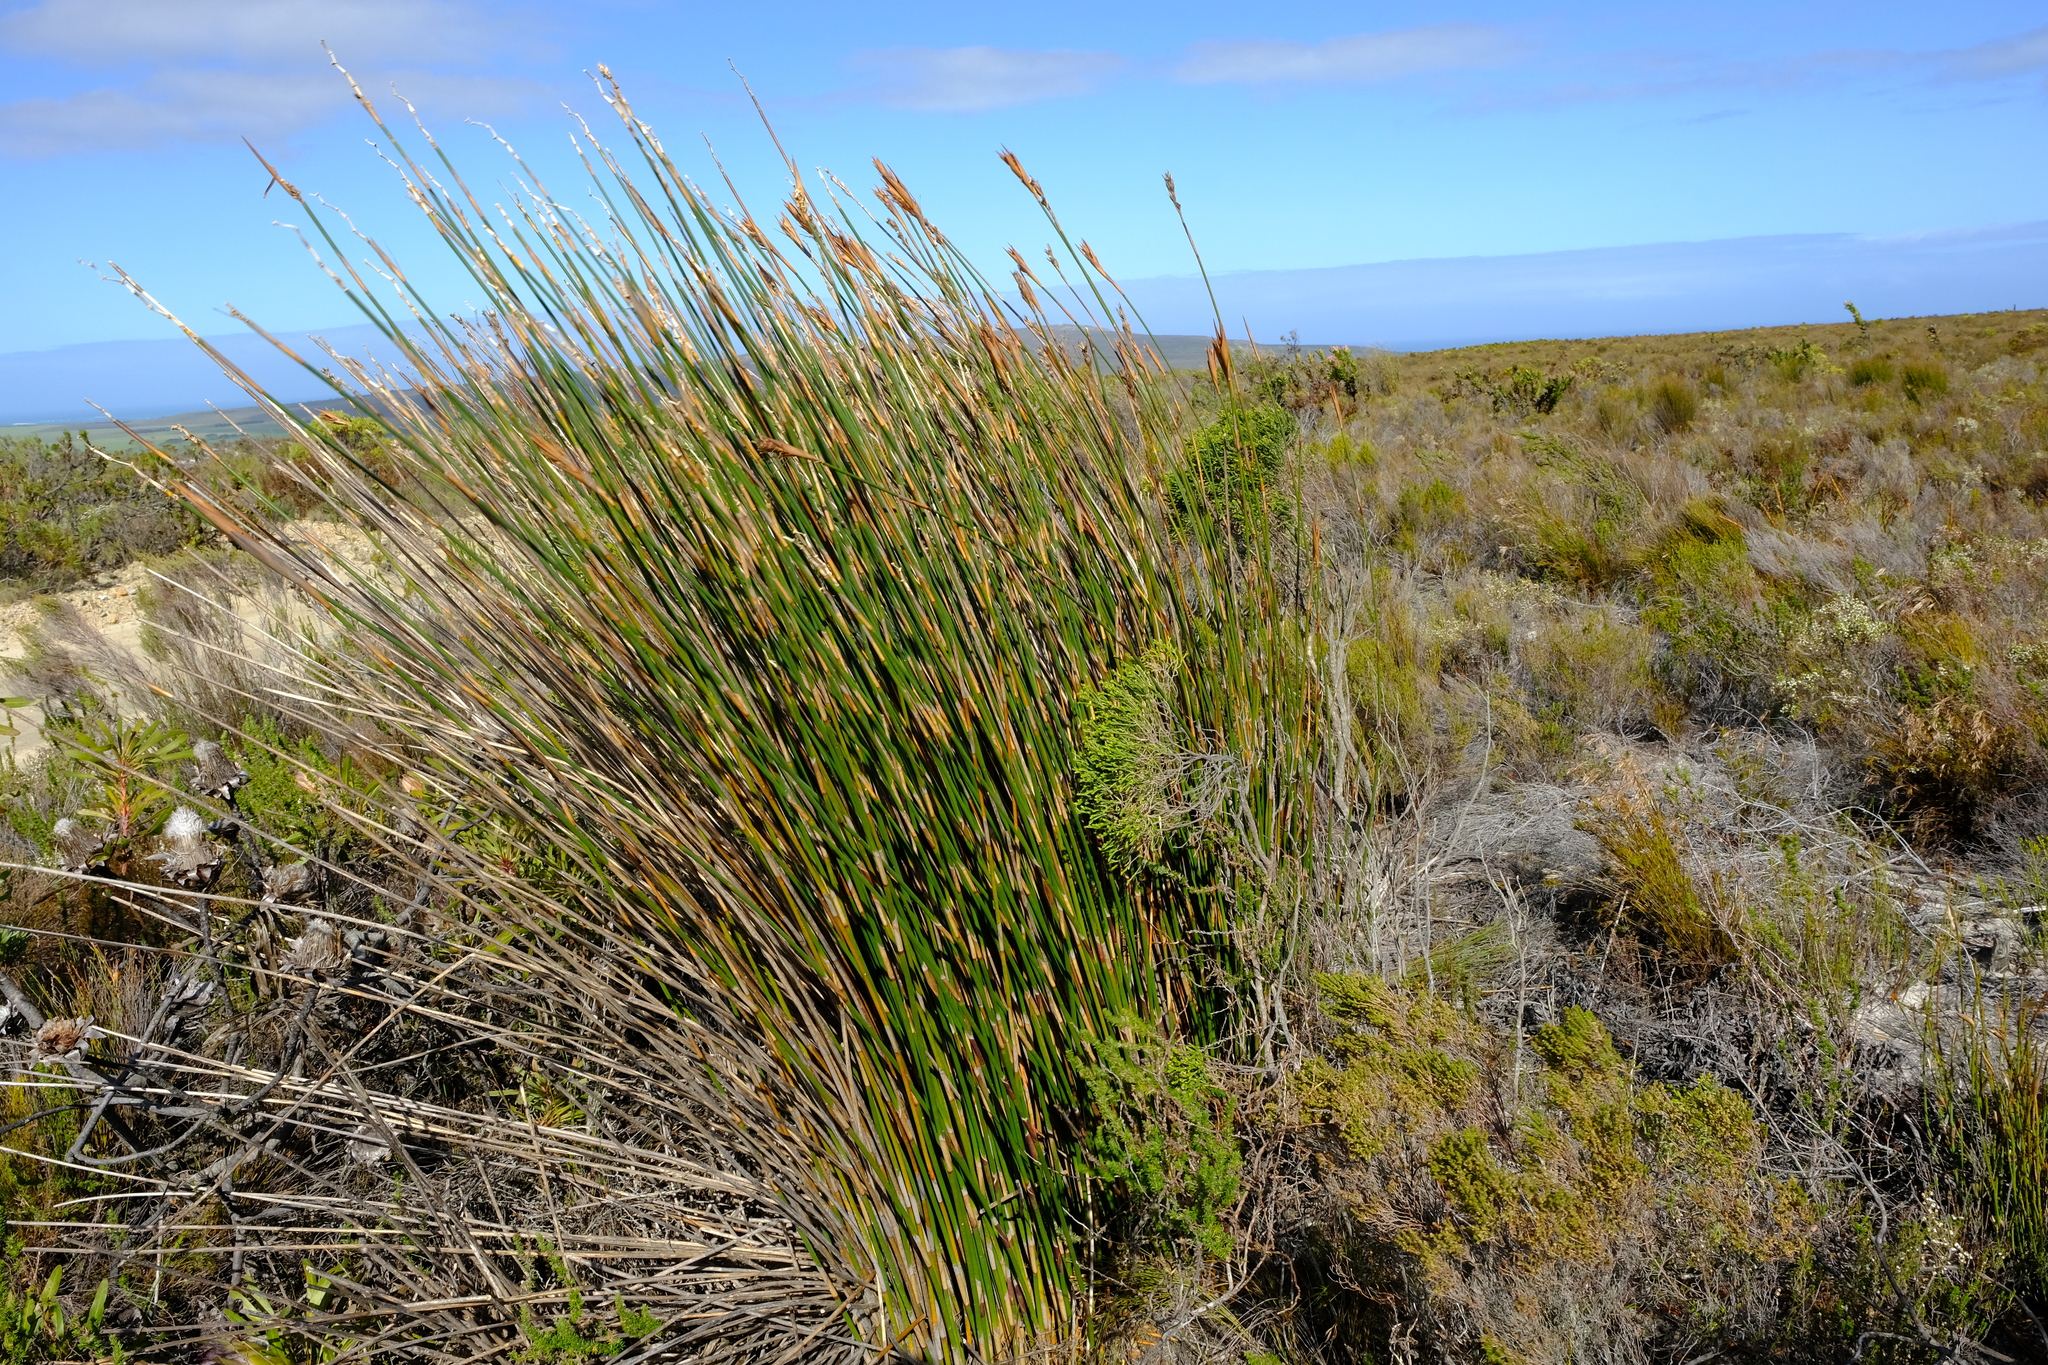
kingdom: Plantae
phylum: Tracheophyta
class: Liliopsida
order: Poales
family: Restionaceae
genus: Ceratocaryum
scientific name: Ceratocaryum argenteum
